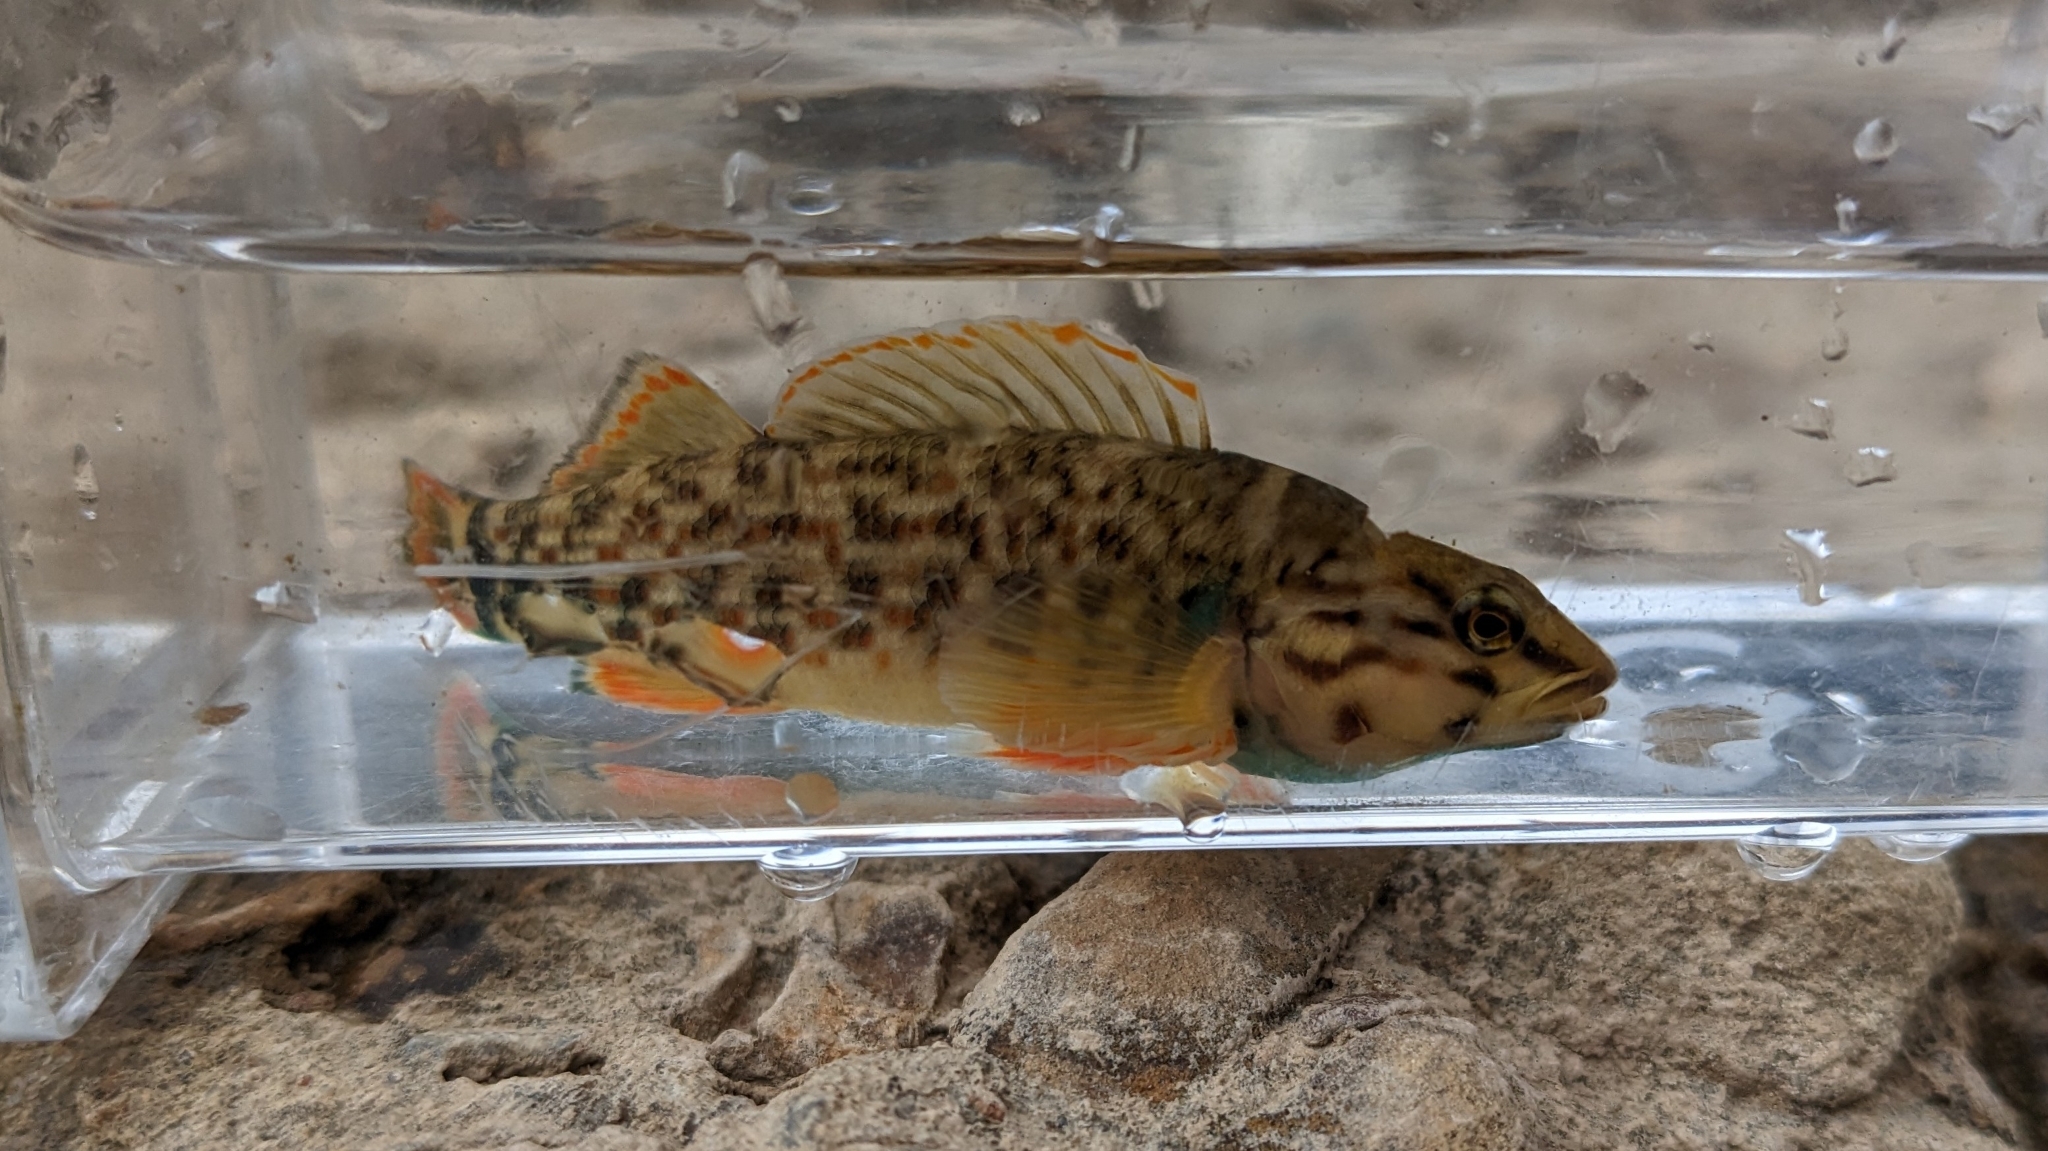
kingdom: Animalia
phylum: Chordata
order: Perciformes
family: Percidae
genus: Etheostoma
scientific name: Etheostoma rufilineatum
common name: Redline darter
